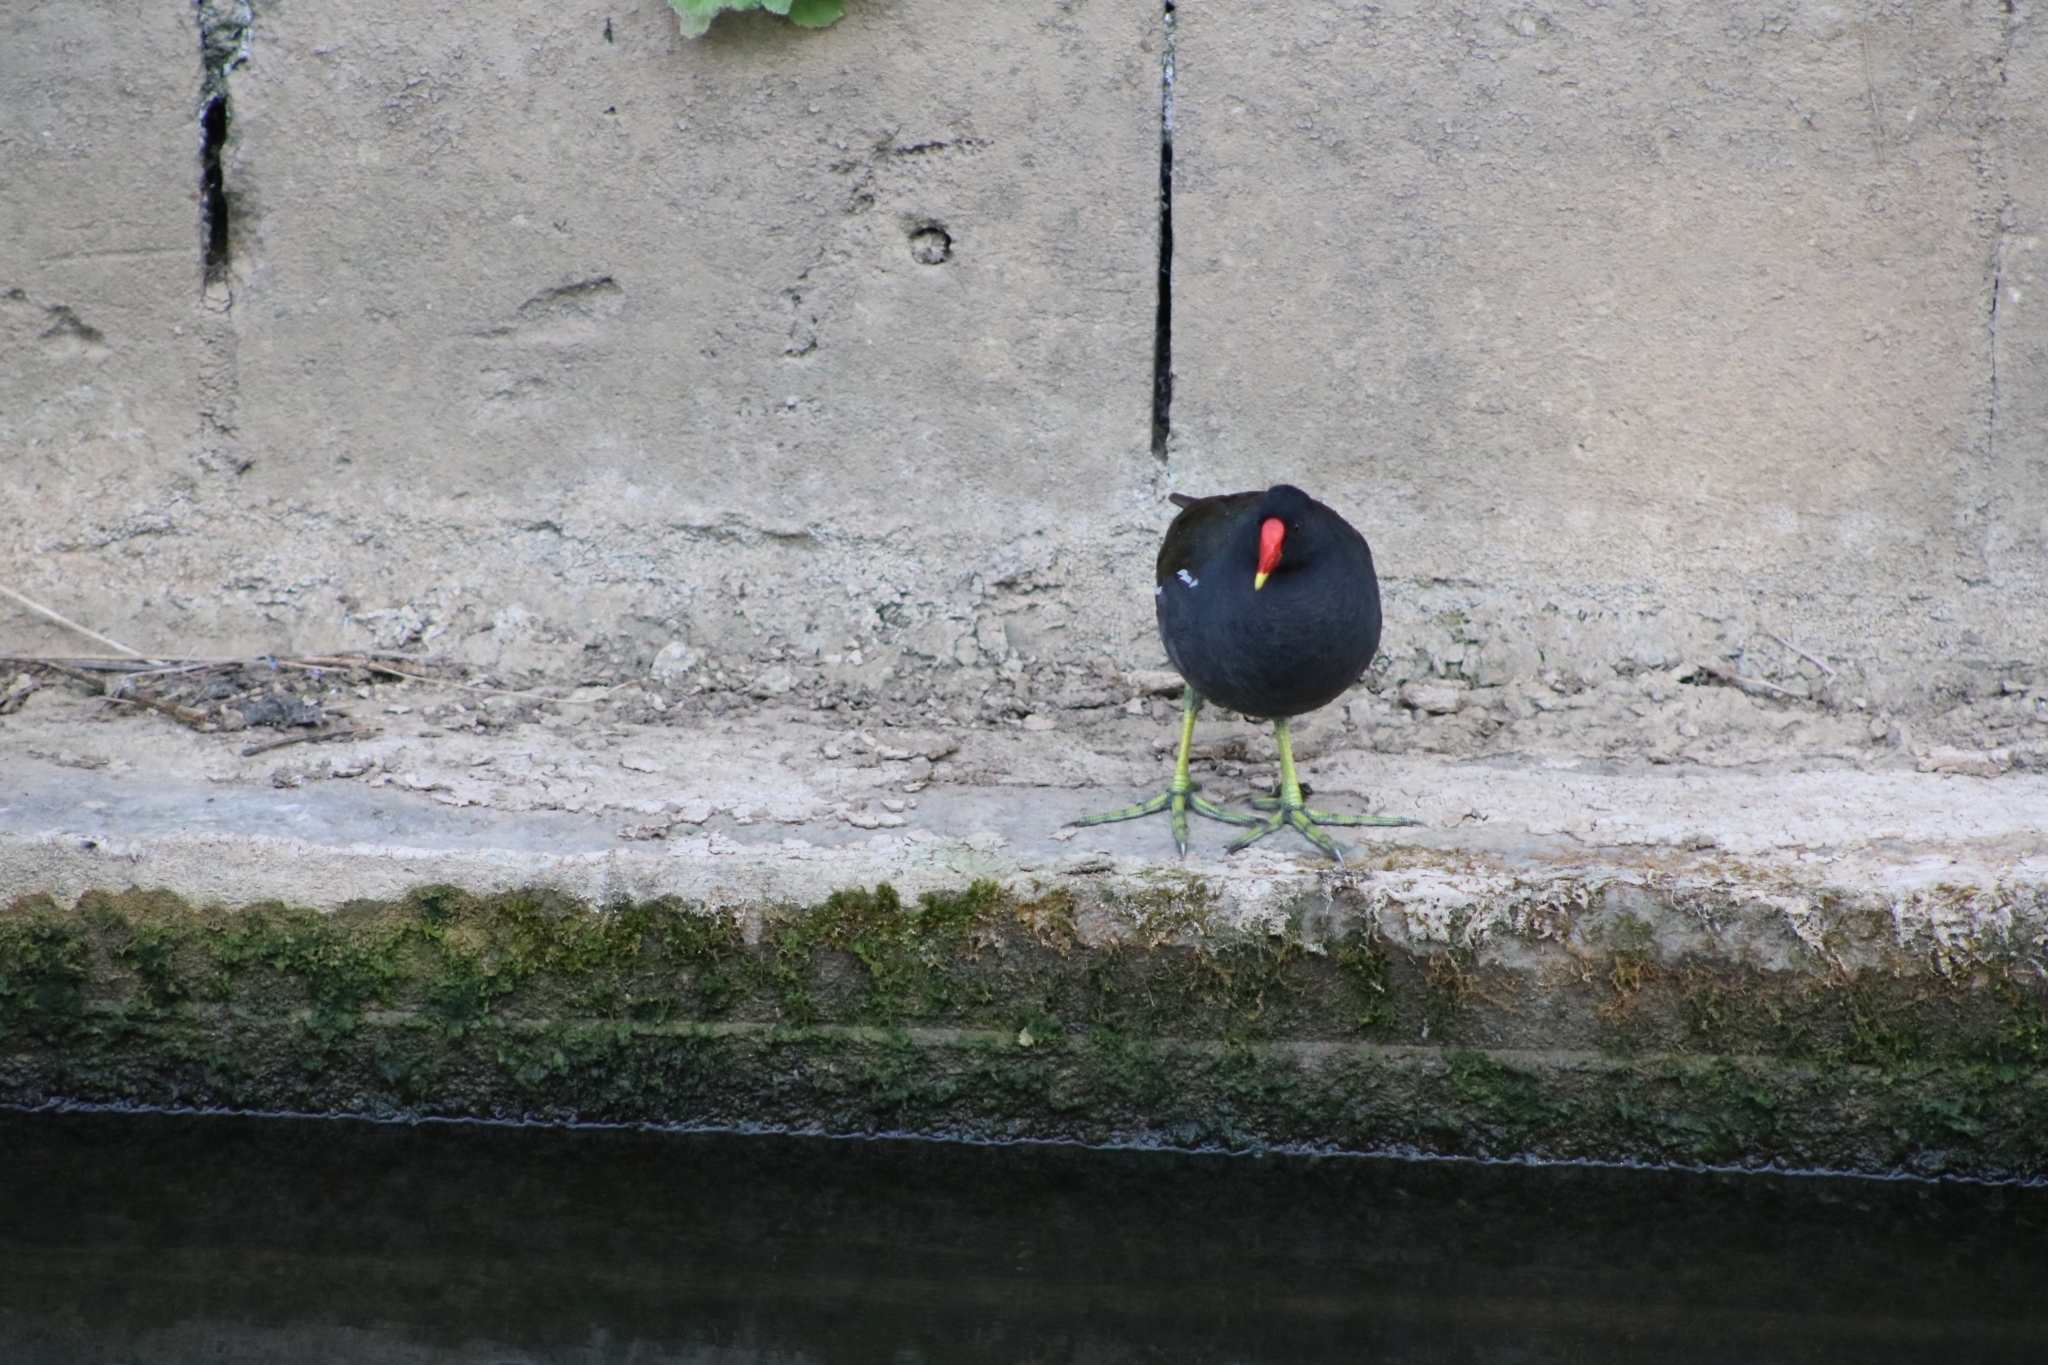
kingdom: Animalia
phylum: Chordata
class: Aves
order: Gruiformes
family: Rallidae
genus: Gallinula
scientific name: Gallinula chloropus
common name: Common moorhen
